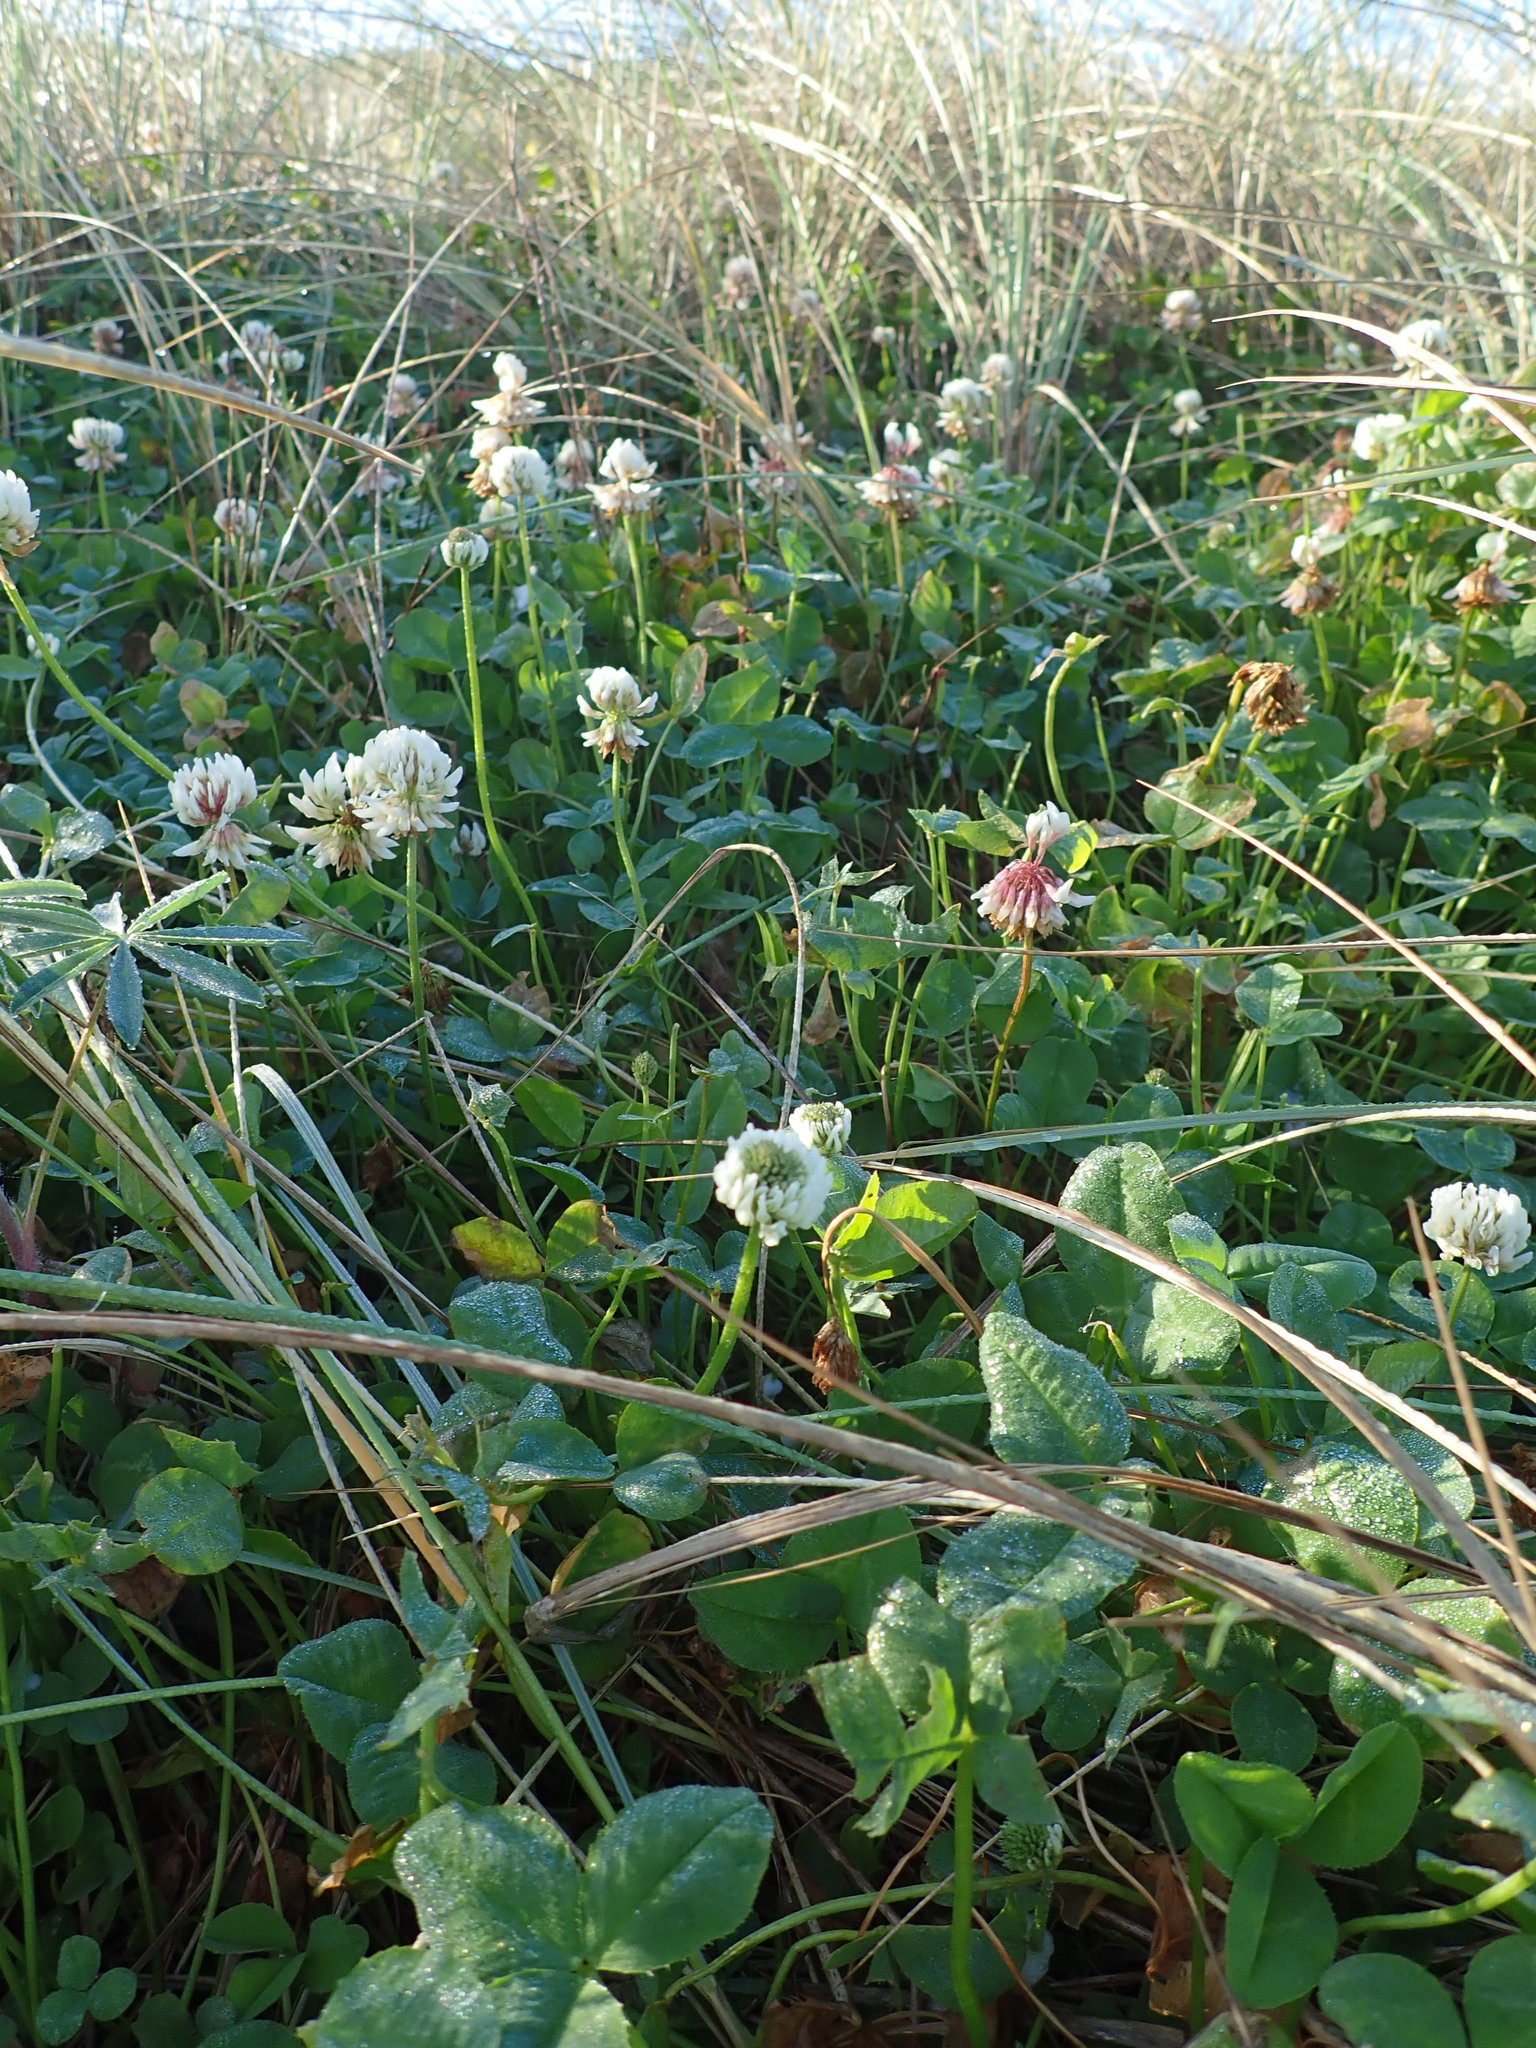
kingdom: Plantae
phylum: Tracheophyta
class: Magnoliopsida
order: Fabales
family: Fabaceae
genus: Trifolium
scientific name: Trifolium repens
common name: White clover
